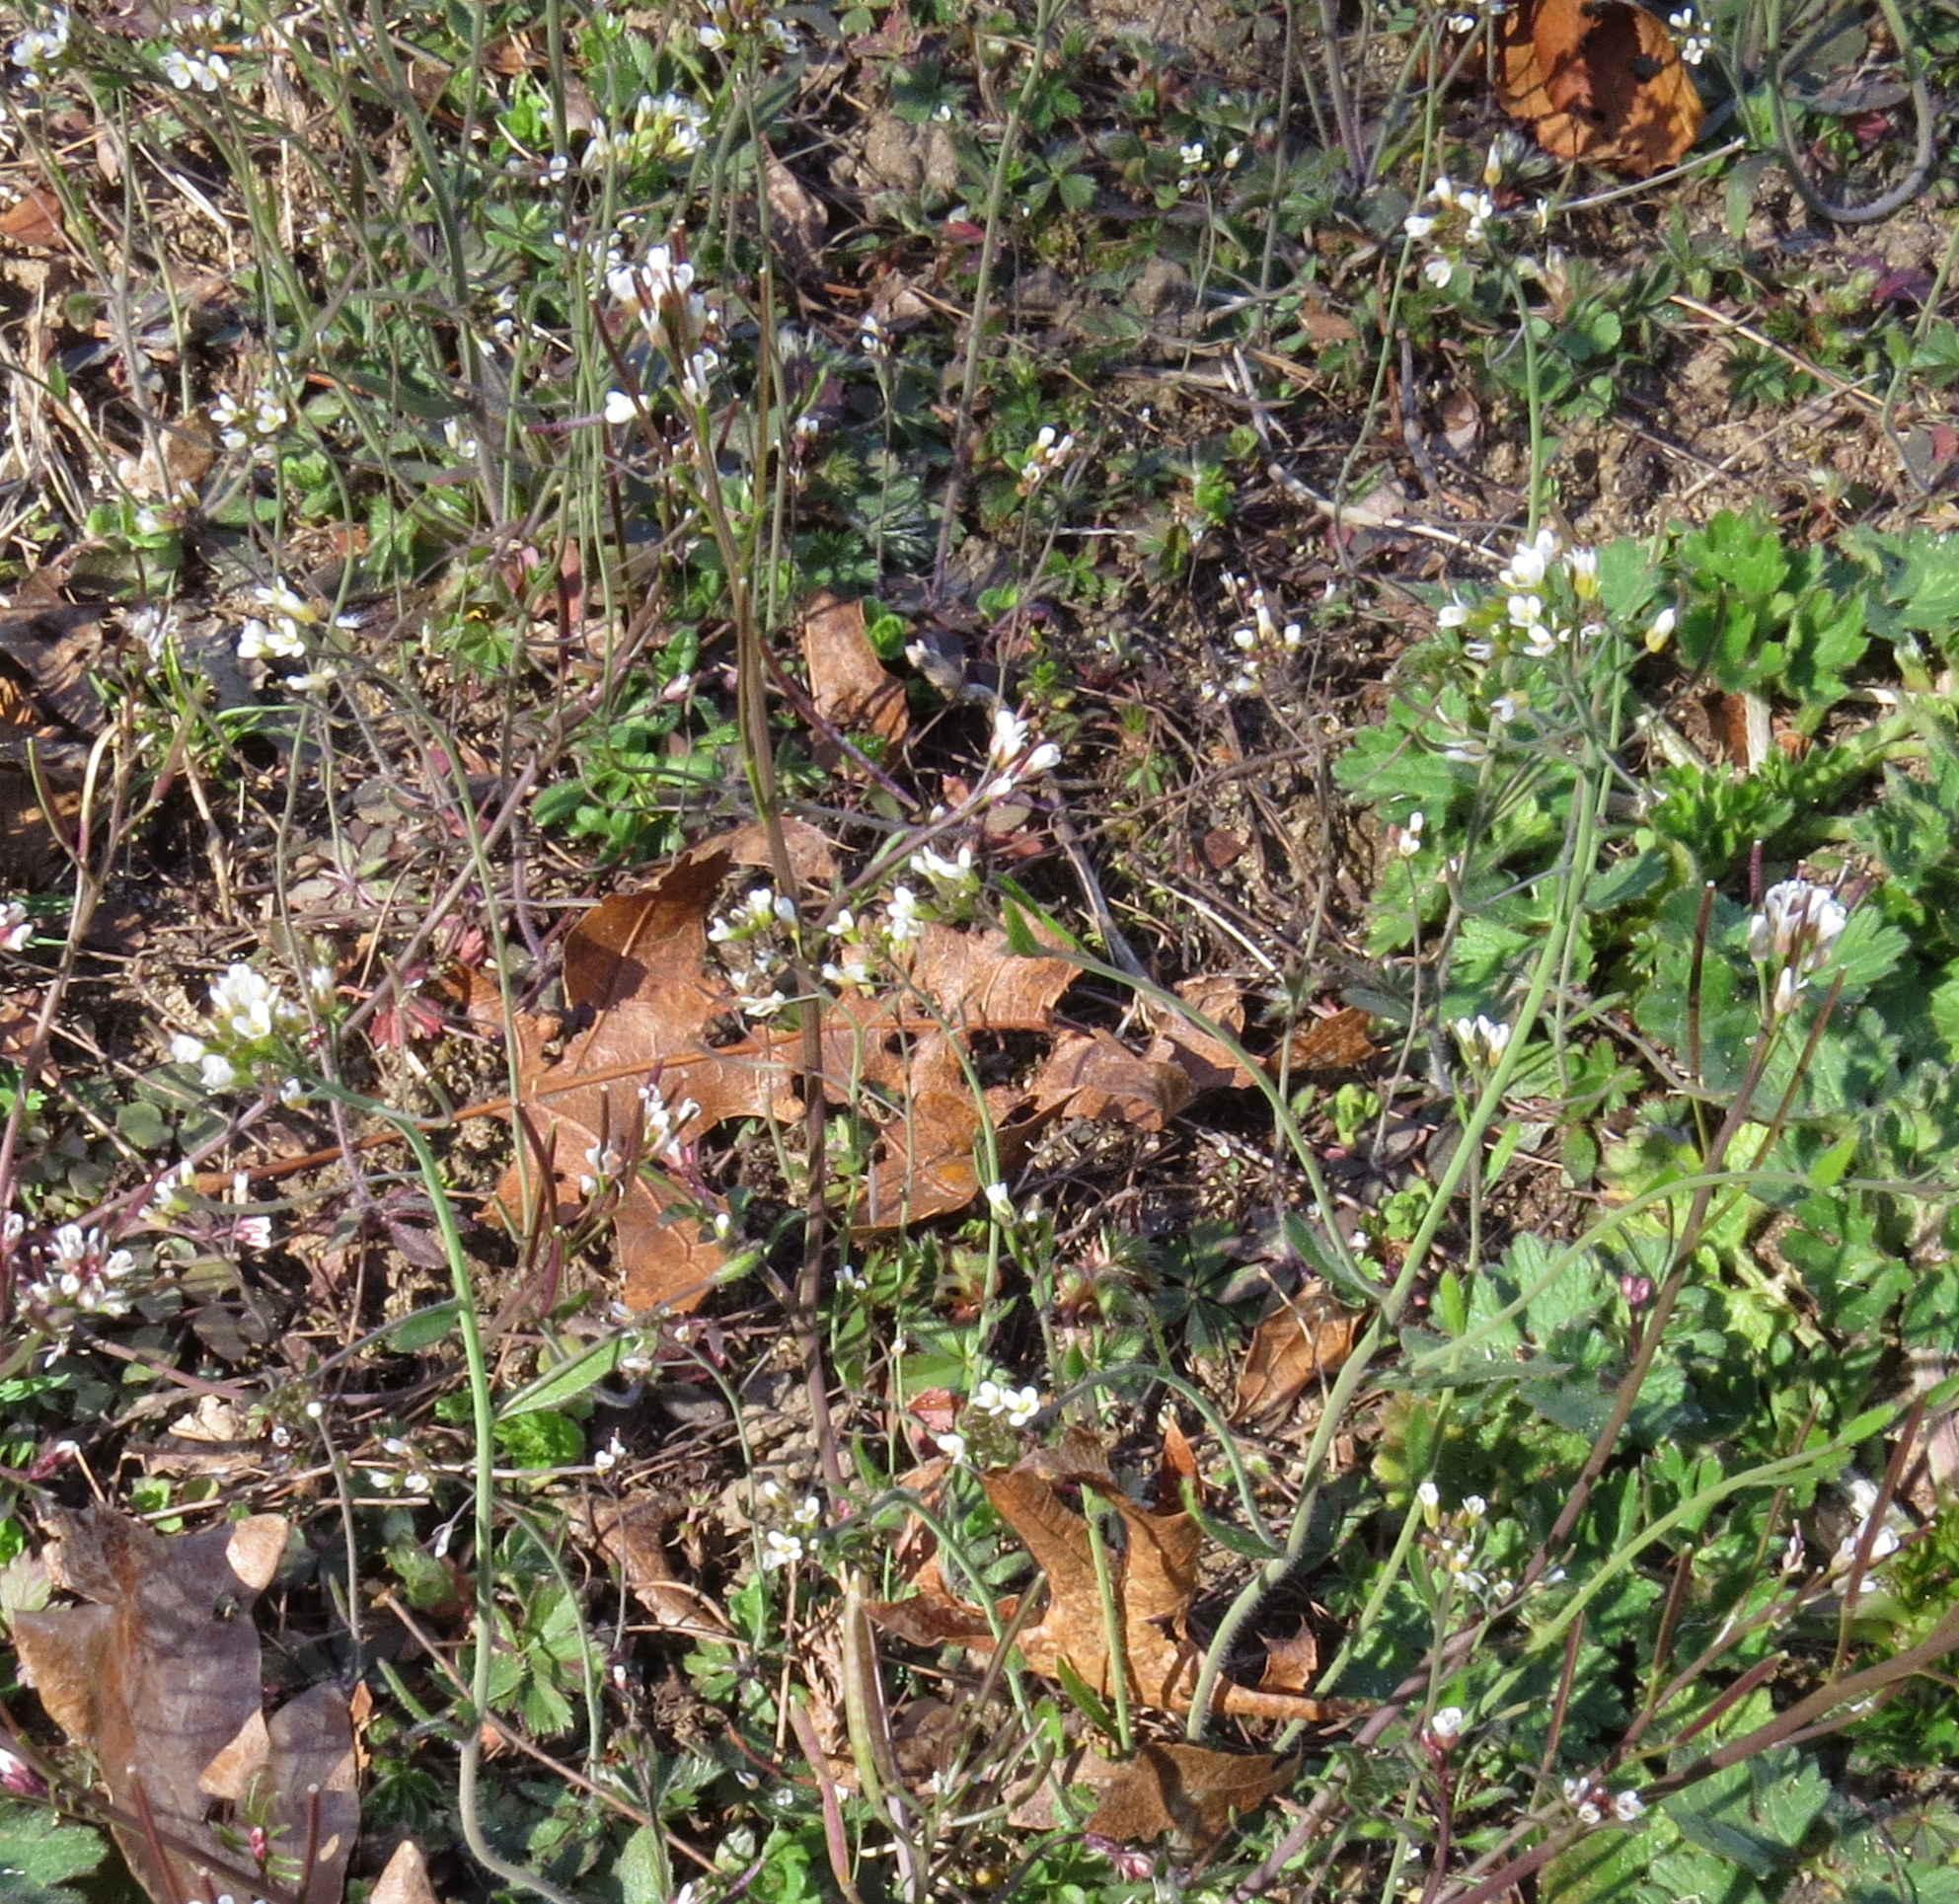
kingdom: Plantae
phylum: Tracheophyta
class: Magnoliopsida
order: Brassicales
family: Brassicaceae
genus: Arabidopsis
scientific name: Arabidopsis thaliana
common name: Thale cress
